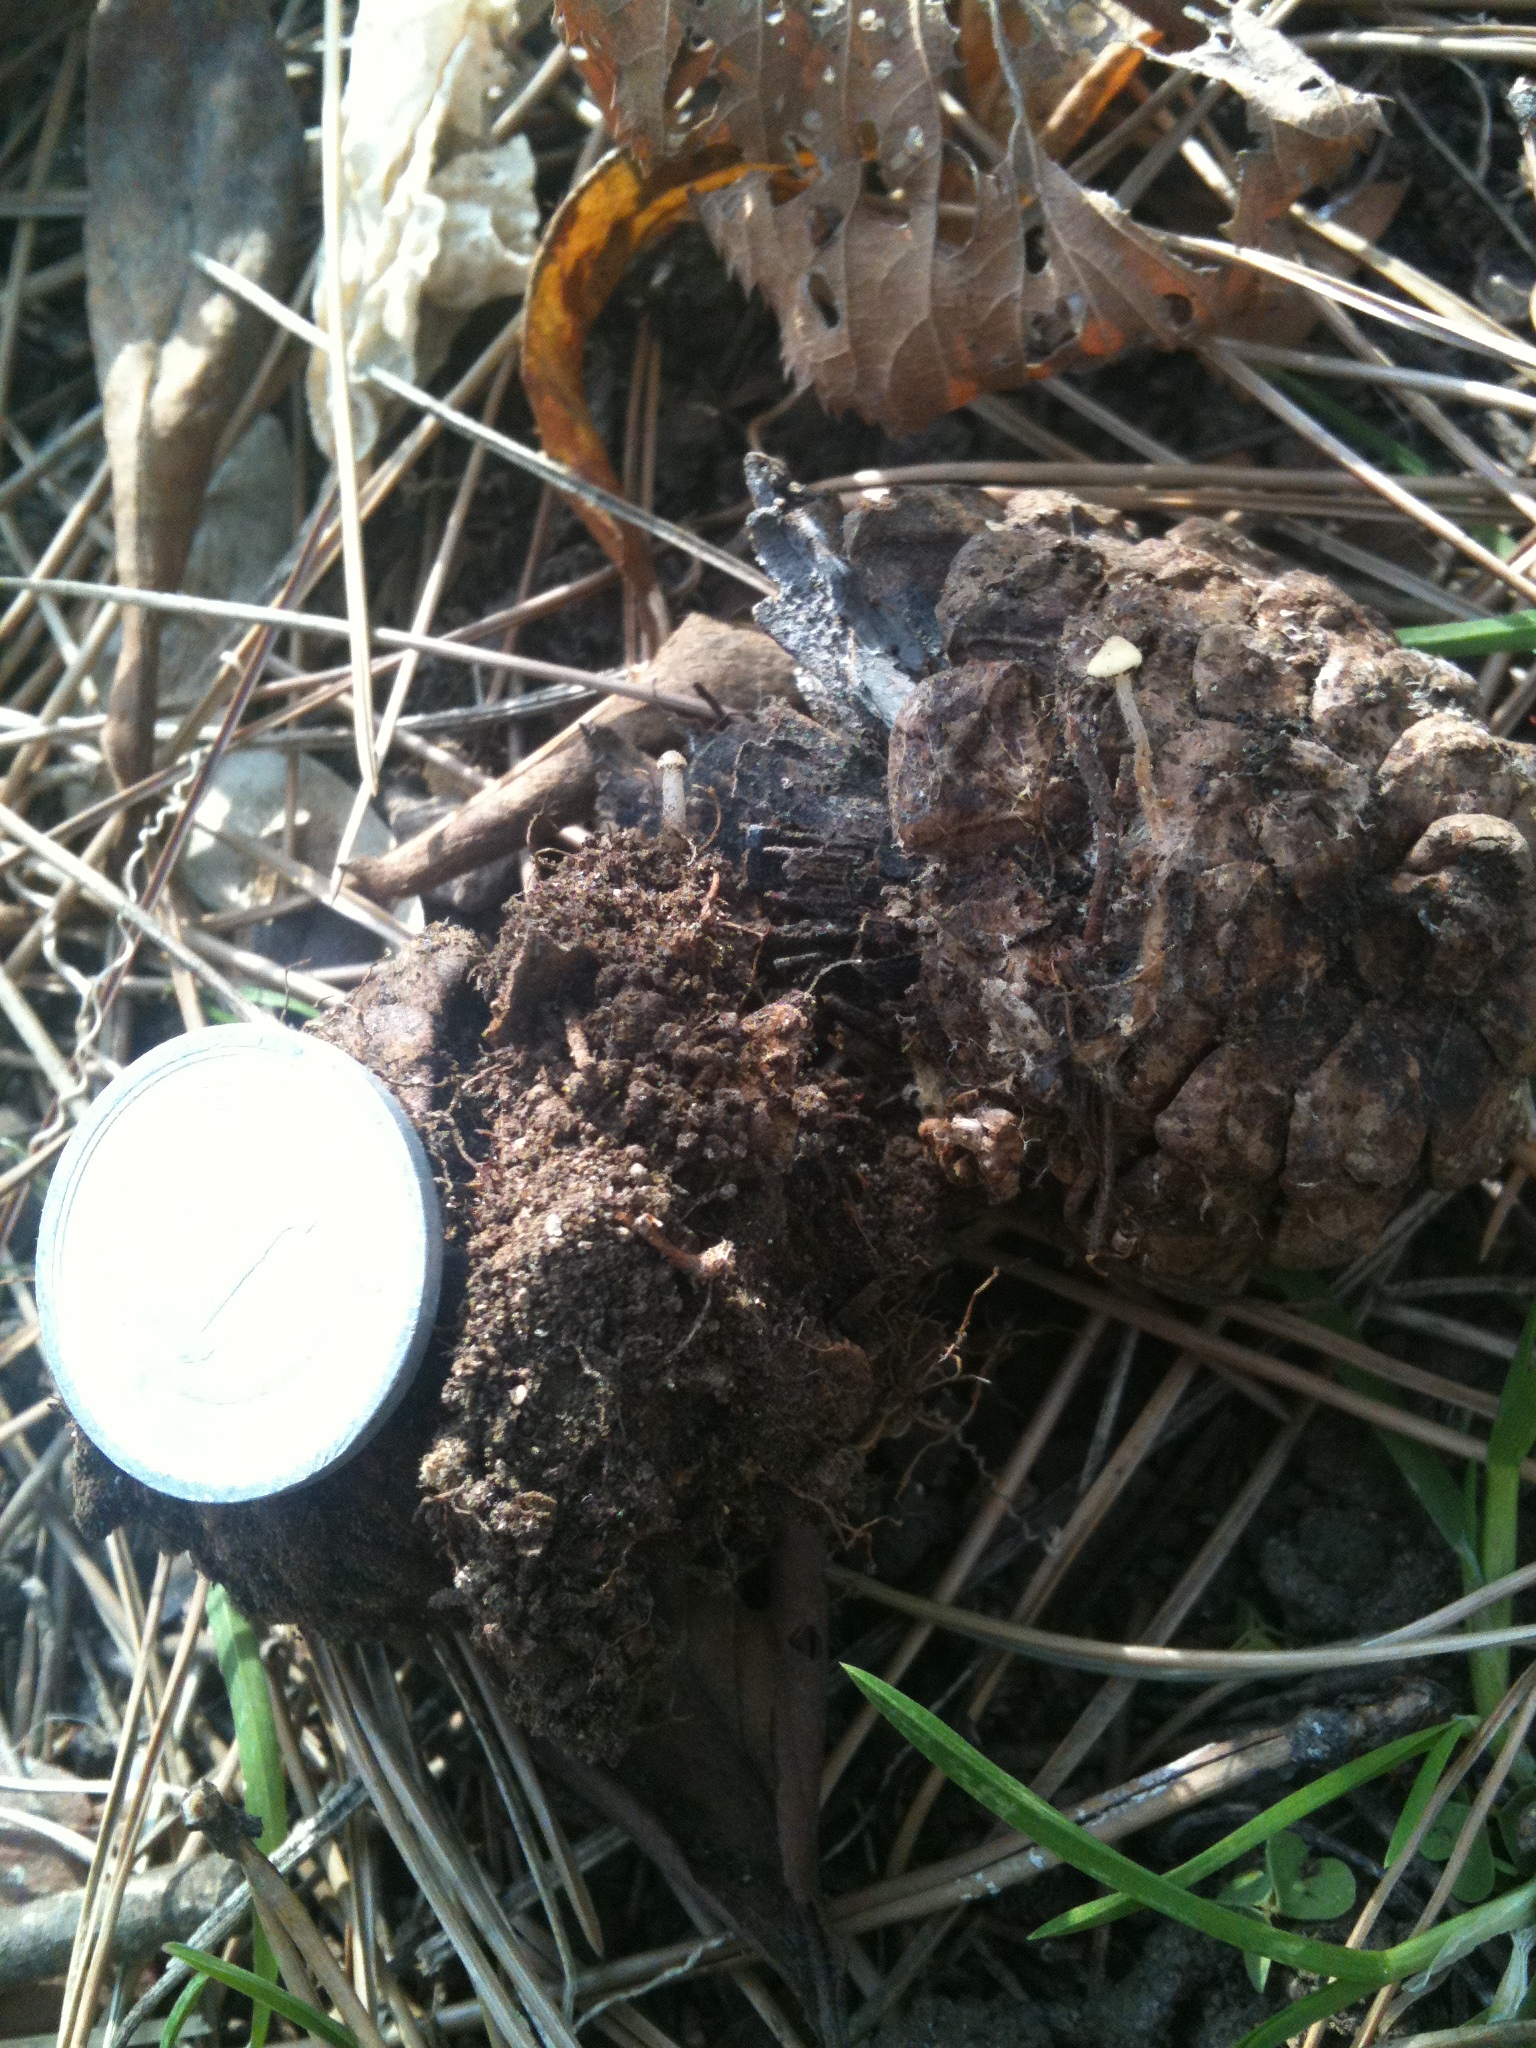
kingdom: Fungi
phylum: Basidiomycota
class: Agaricomycetes
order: Agaricales
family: Physalacriaceae
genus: Strobilurus
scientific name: Strobilurus stephanocystis
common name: Russian conecap
